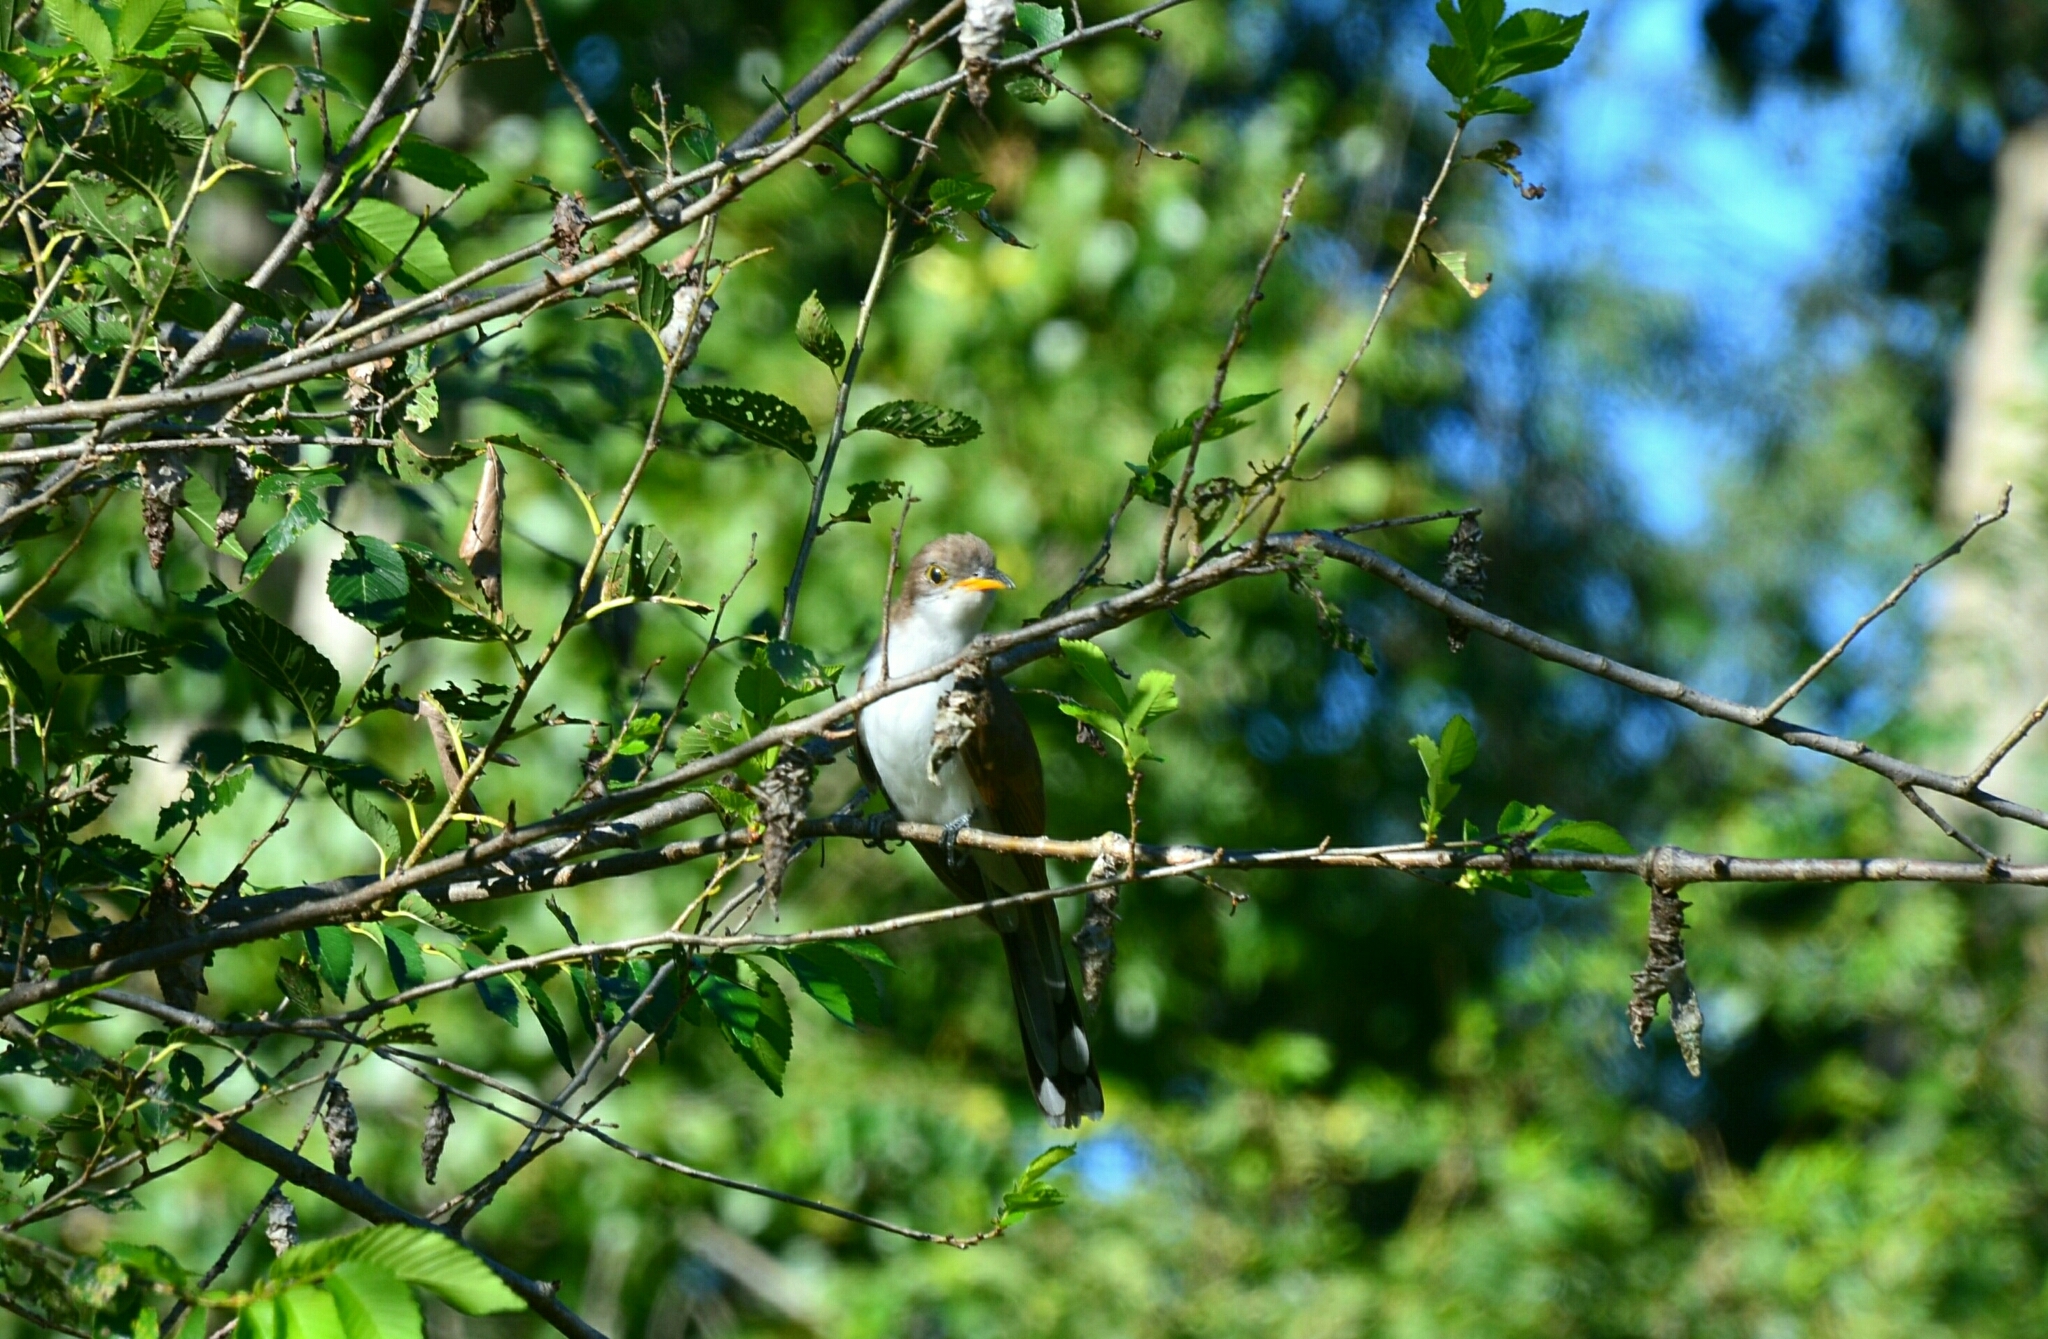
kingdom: Animalia
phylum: Chordata
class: Aves
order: Cuculiformes
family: Cuculidae
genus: Coccyzus
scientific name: Coccyzus americanus
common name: Yellow-billed cuckoo
